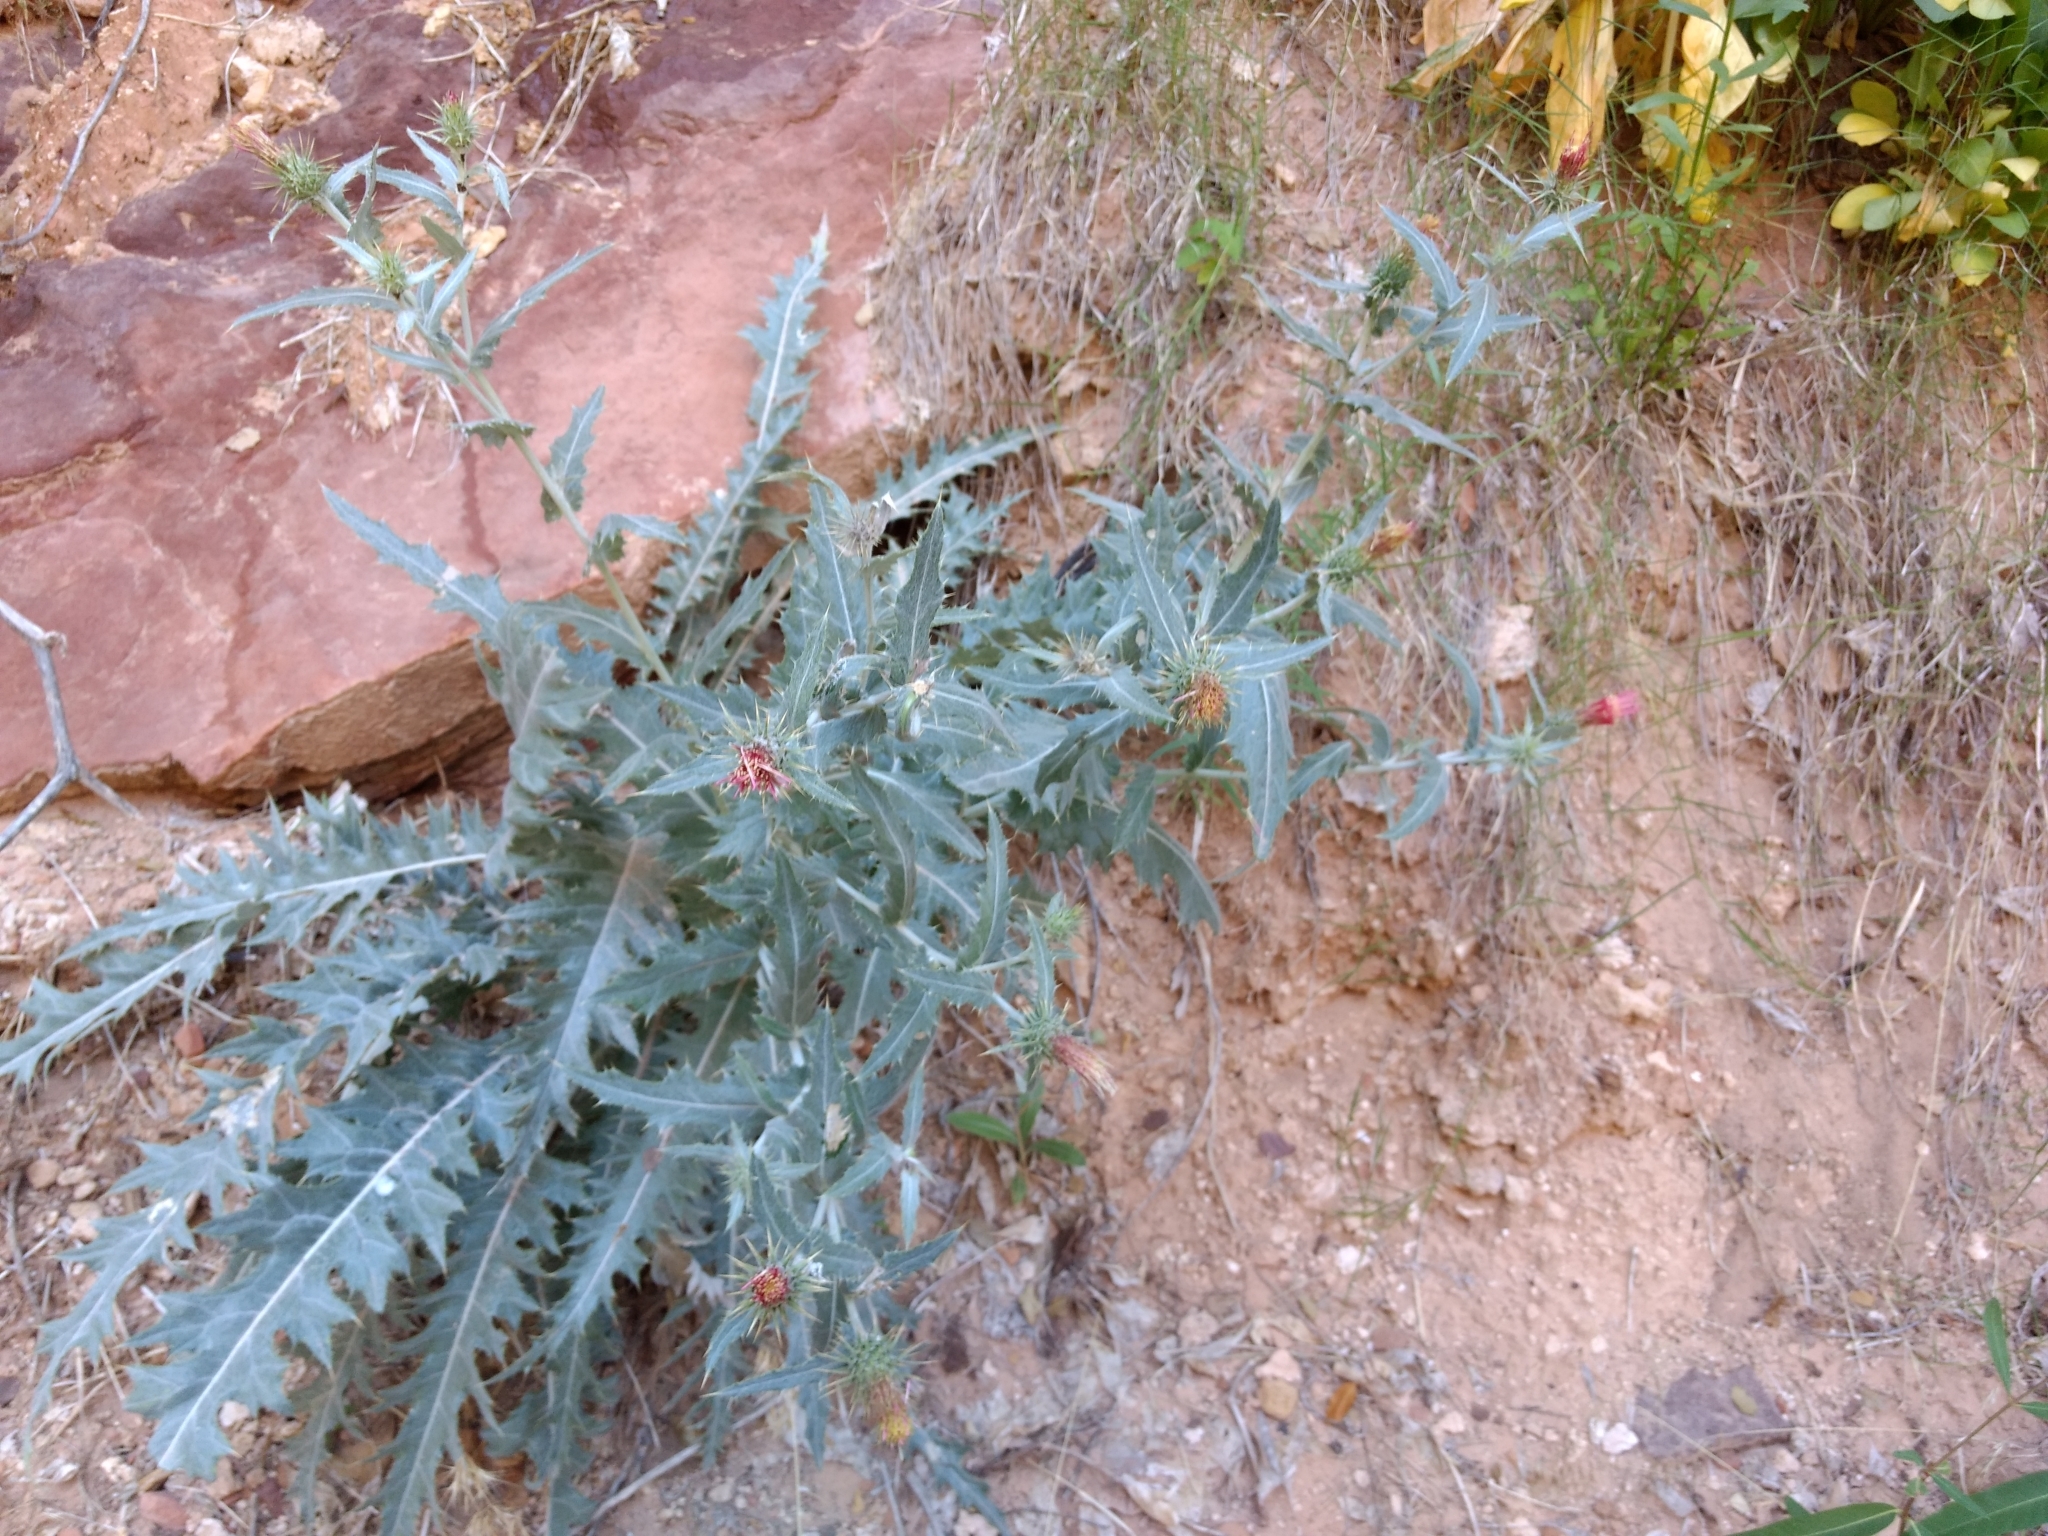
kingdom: Plantae
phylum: Tracheophyta
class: Magnoliopsida
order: Asterales
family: Asteraceae
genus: Cirsium
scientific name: Cirsium arizonicum
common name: Arizona thistle
